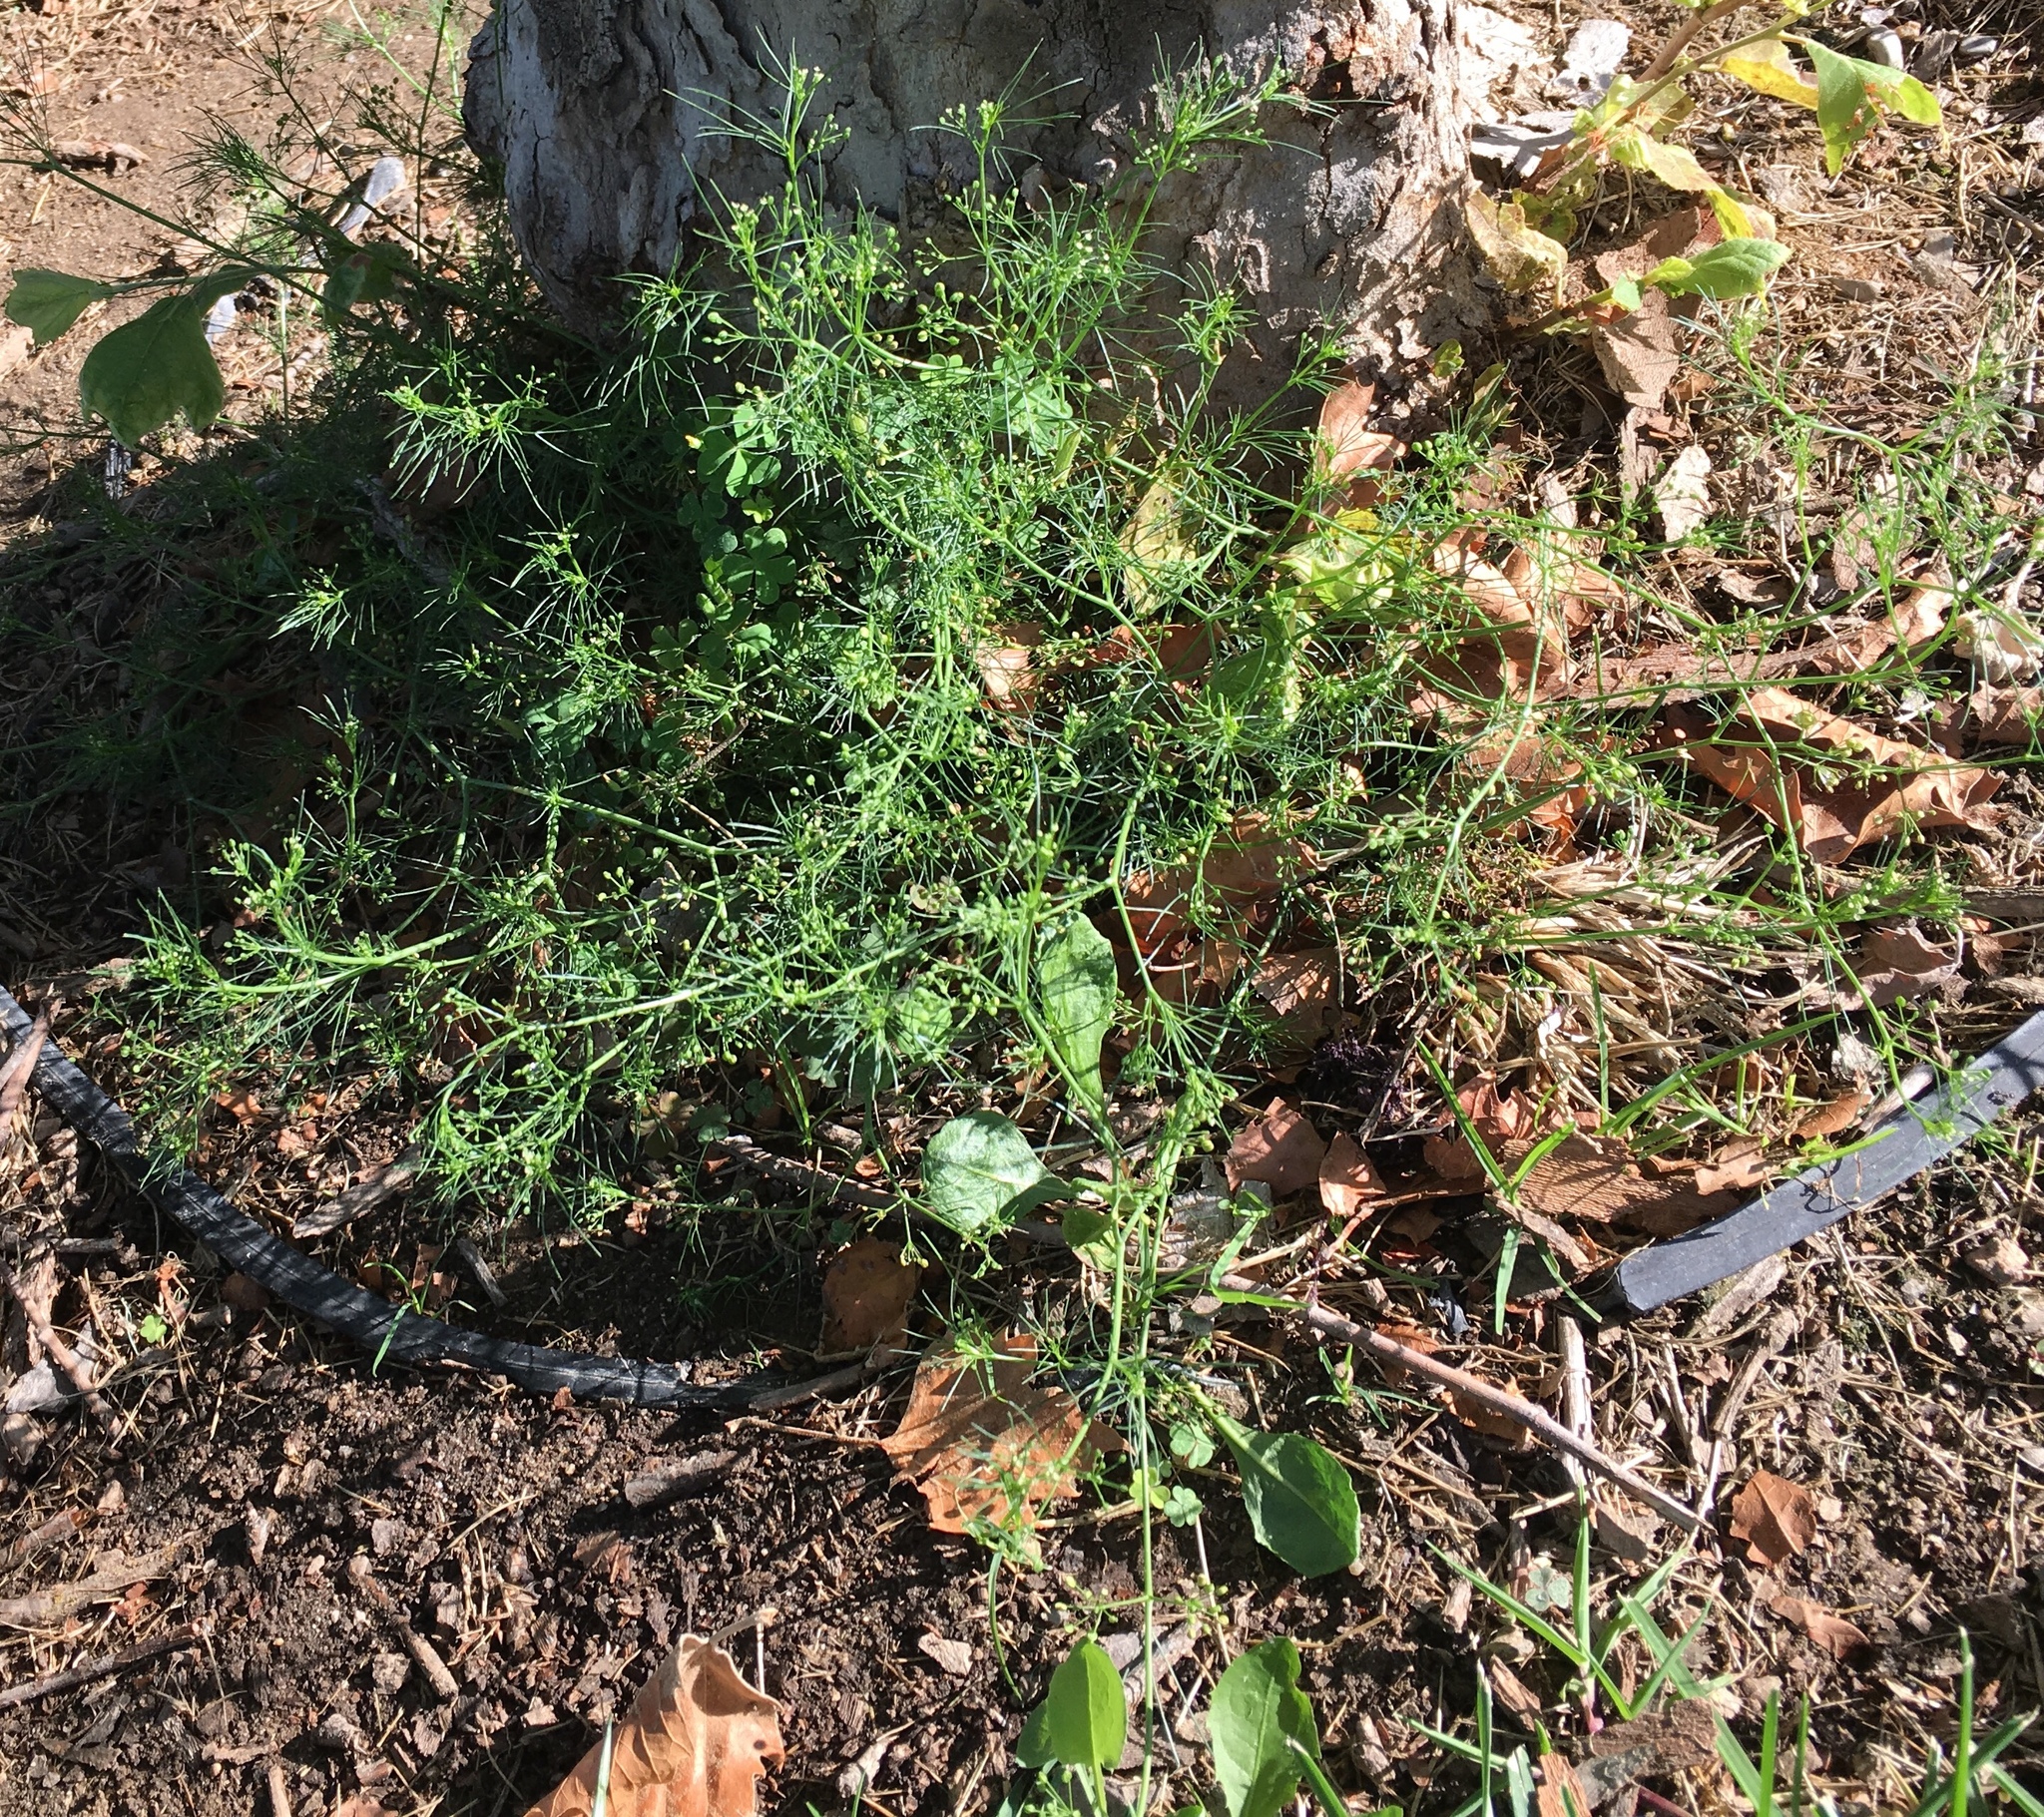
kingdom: Plantae
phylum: Tracheophyta
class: Magnoliopsida
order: Apiales
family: Apiaceae
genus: Cyclospermum
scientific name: Cyclospermum leptophyllum
